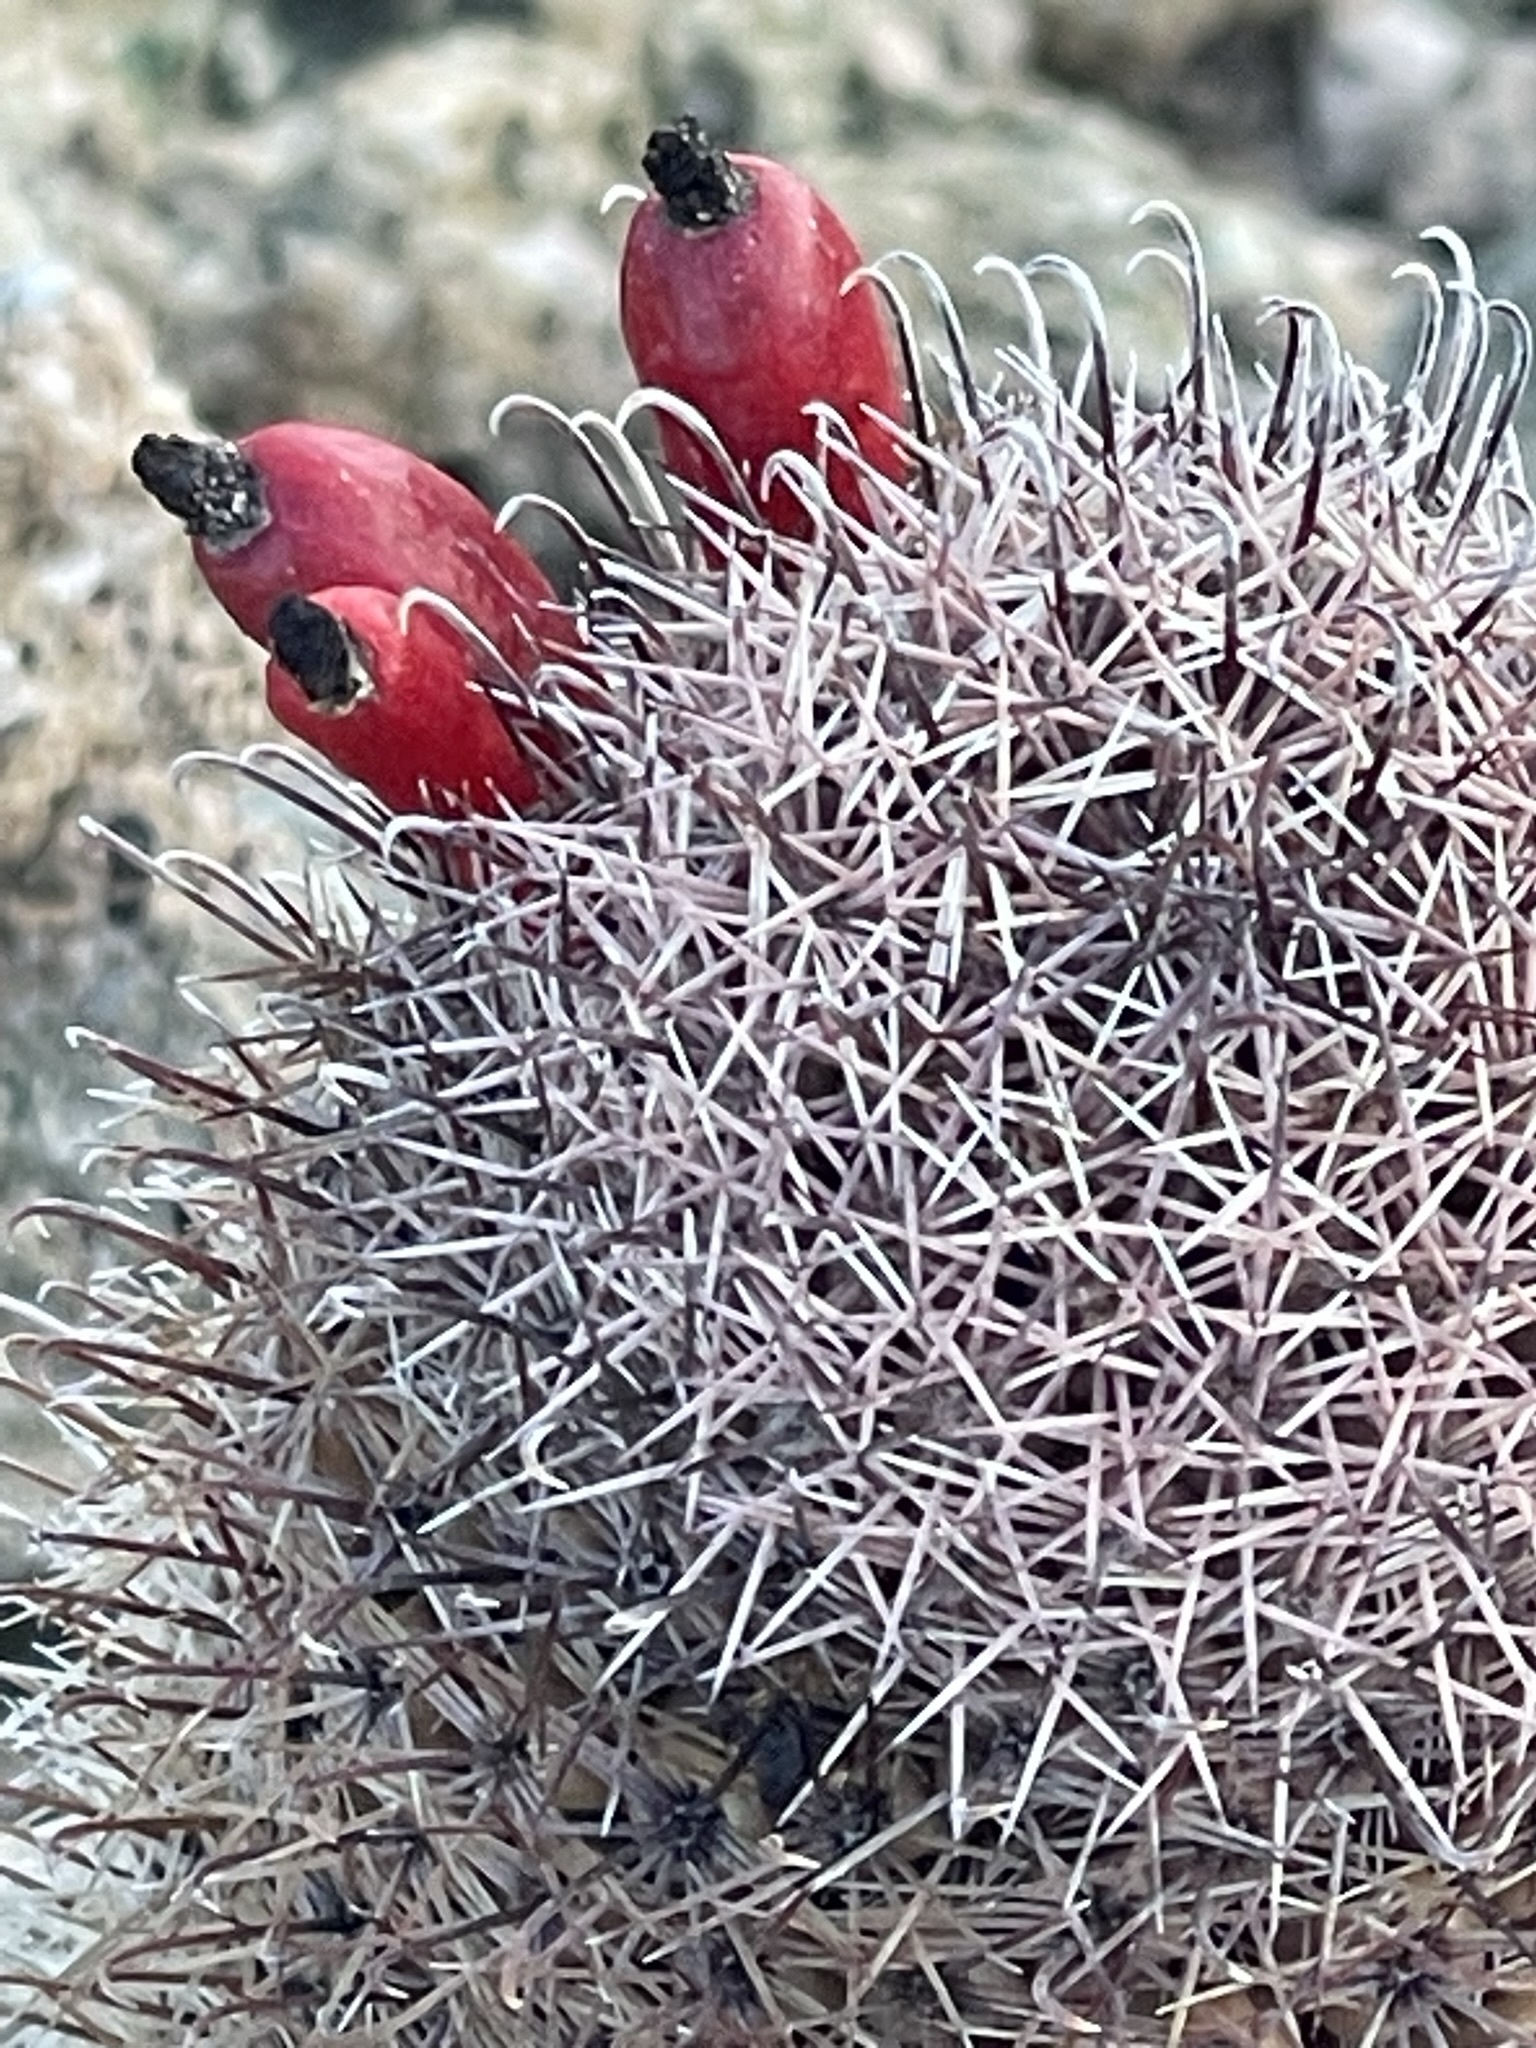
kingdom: Plantae
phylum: Tracheophyta
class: Magnoliopsida
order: Caryophyllales
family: Cactaceae
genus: Cochemiea
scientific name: Cochemiea dioica
